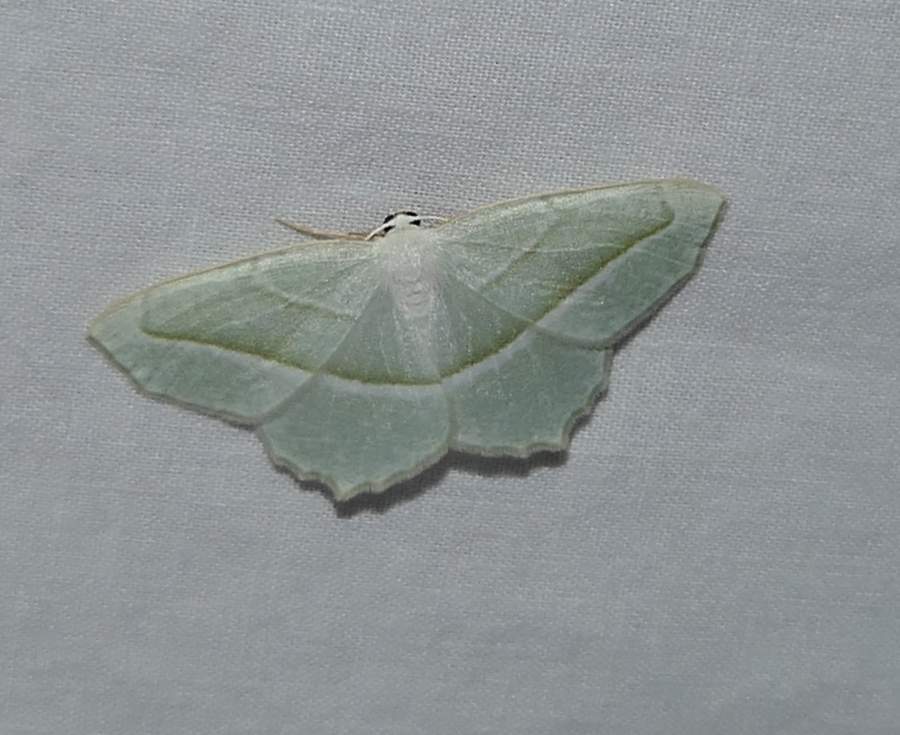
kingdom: Animalia
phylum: Arthropoda
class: Insecta
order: Lepidoptera
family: Geometridae
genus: Campaea
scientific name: Campaea perlata
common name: Fringed looper
